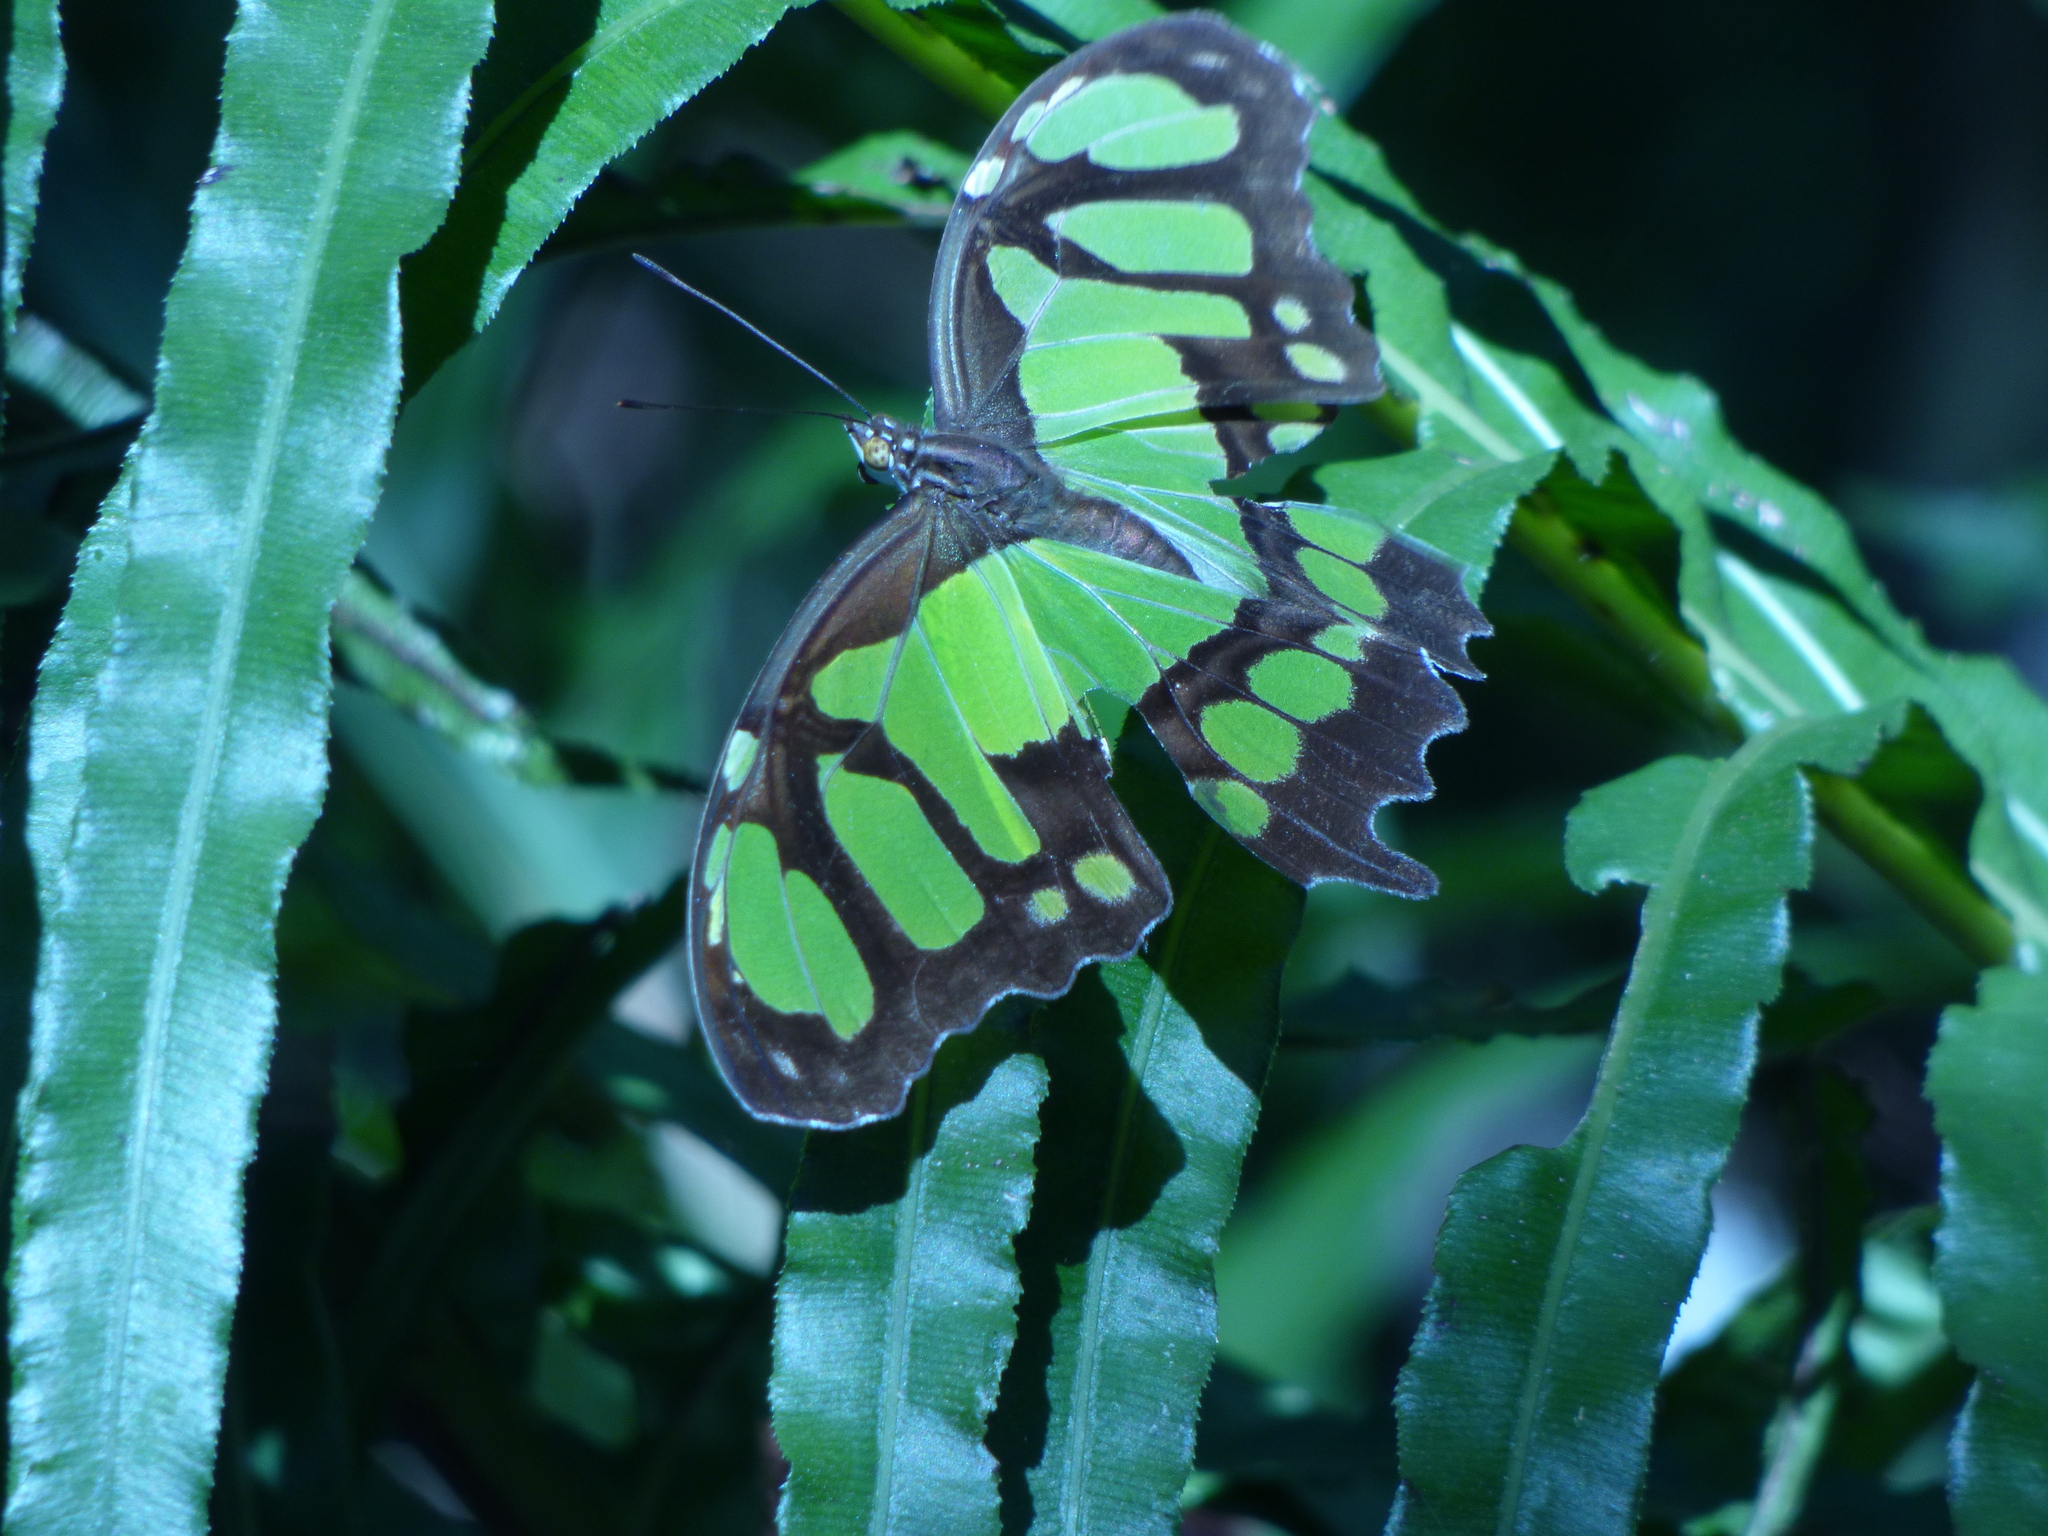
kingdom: Animalia
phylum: Arthropoda
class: Insecta
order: Lepidoptera
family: Nymphalidae
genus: Siproeta
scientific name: Siproeta stelenes
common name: Malachite
